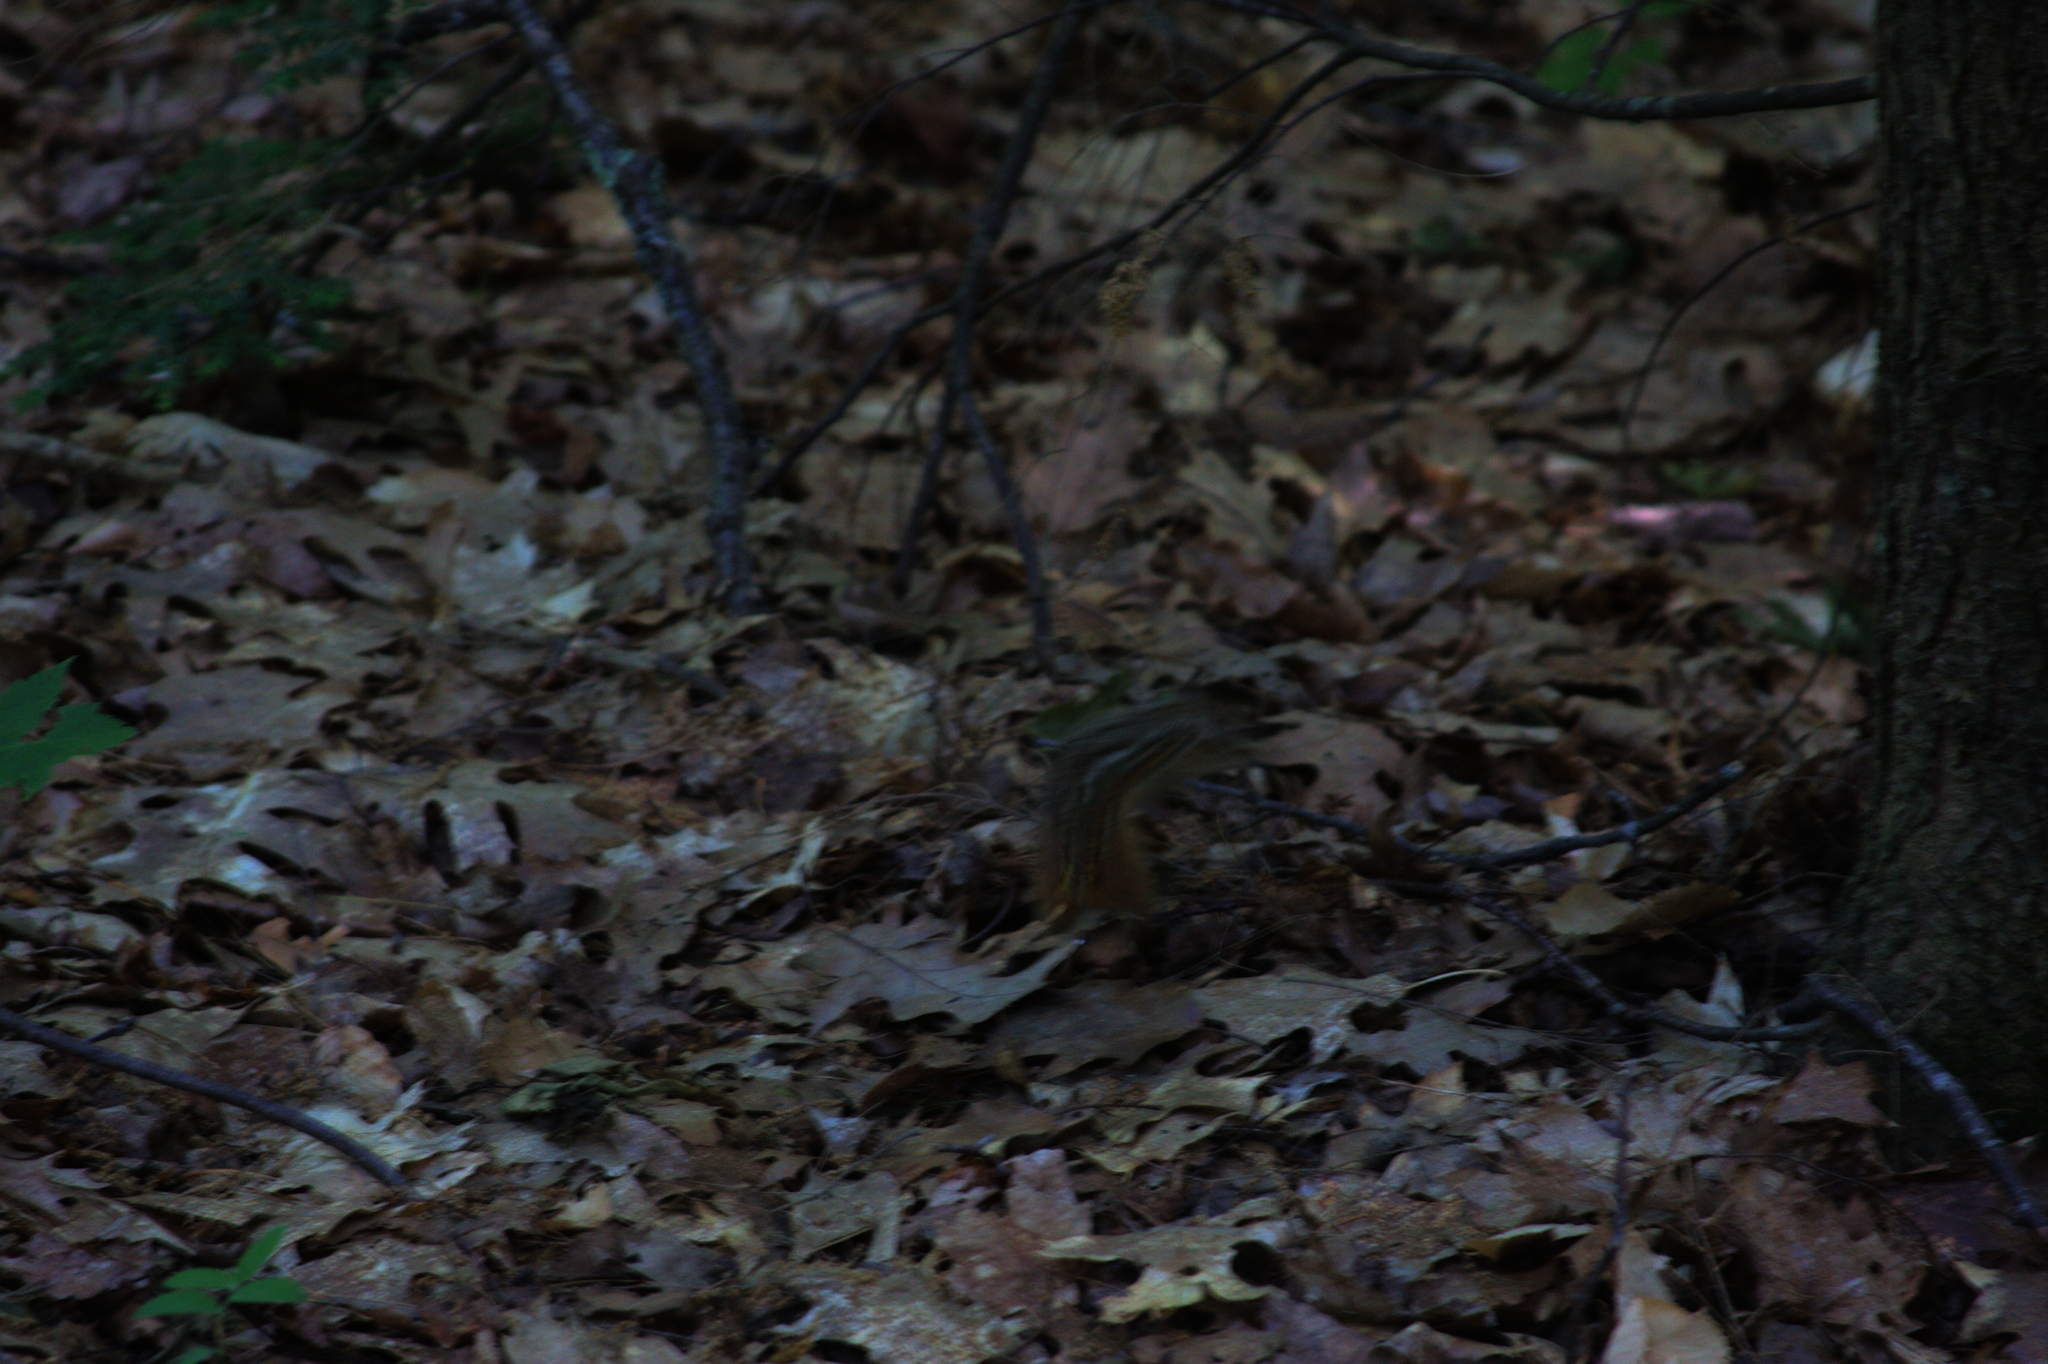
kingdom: Animalia
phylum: Chordata
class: Mammalia
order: Rodentia
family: Sciuridae
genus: Tamias
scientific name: Tamias striatus
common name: Eastern chipmunk
